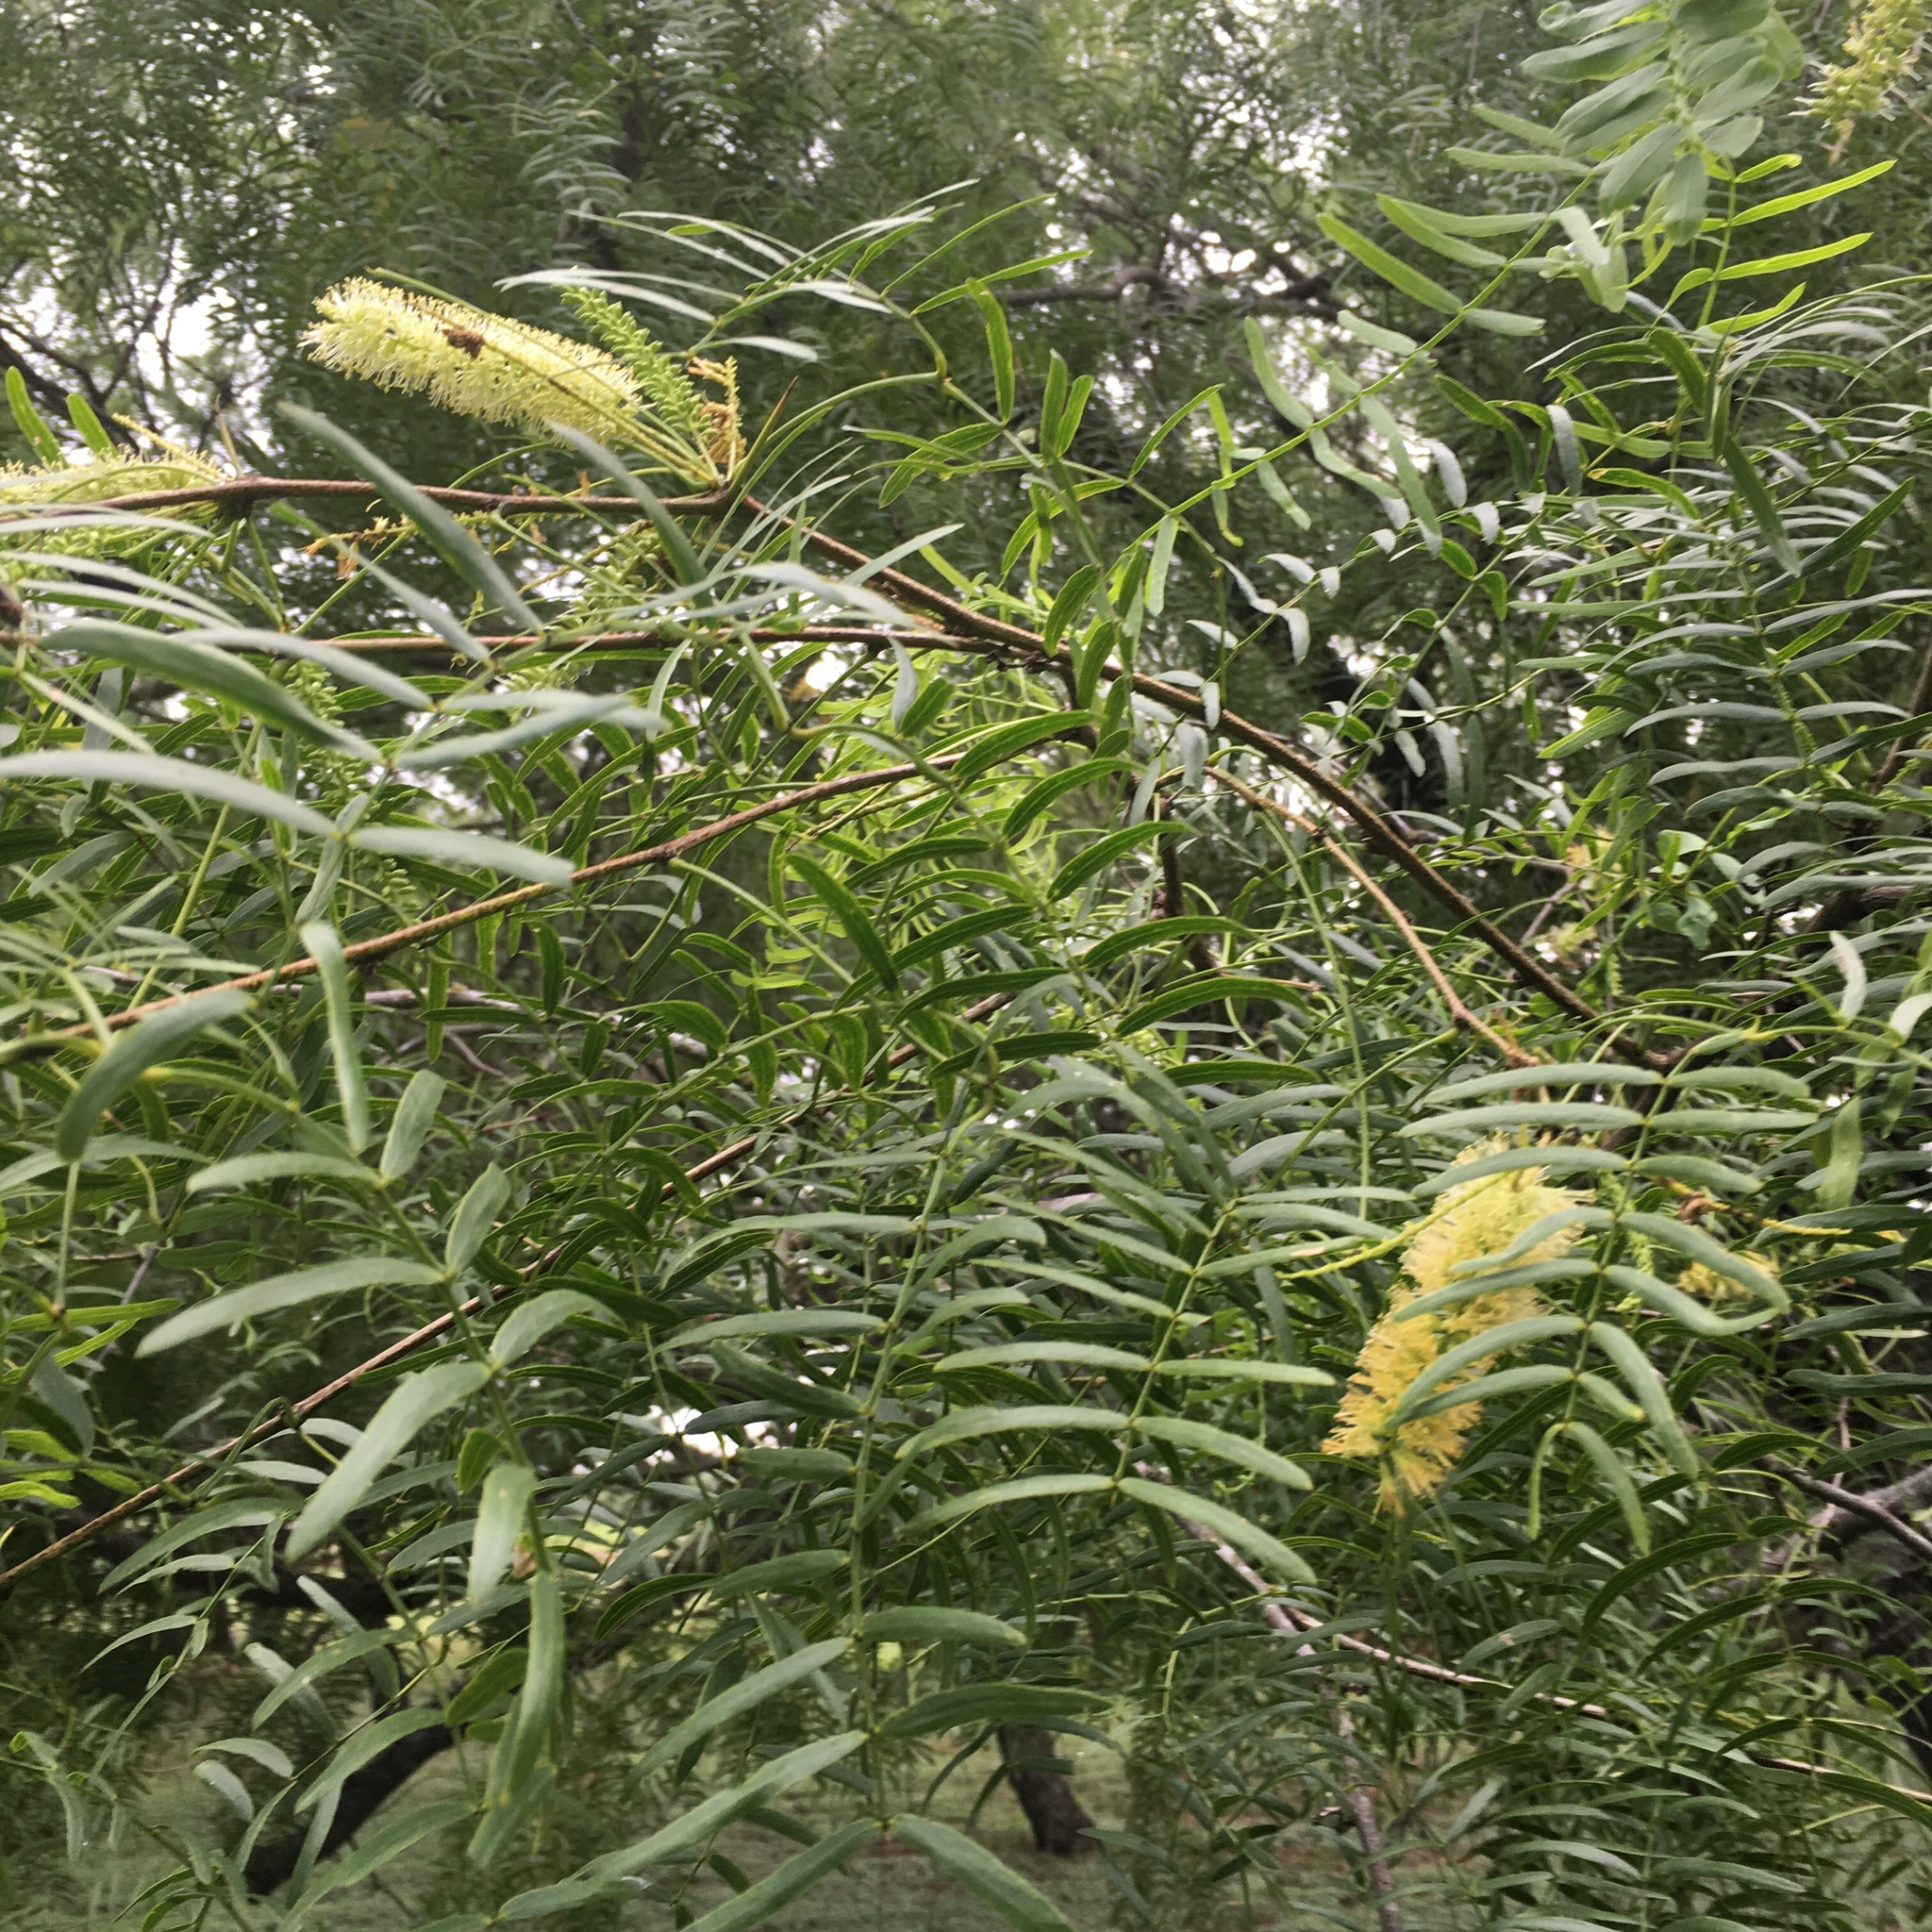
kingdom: Plantae
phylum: Tracheophyta
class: Magnoliopsida
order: Fabales
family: Fabaceae
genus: Prosopis
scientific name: Prosopis glandulosa
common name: Honey mesquite
